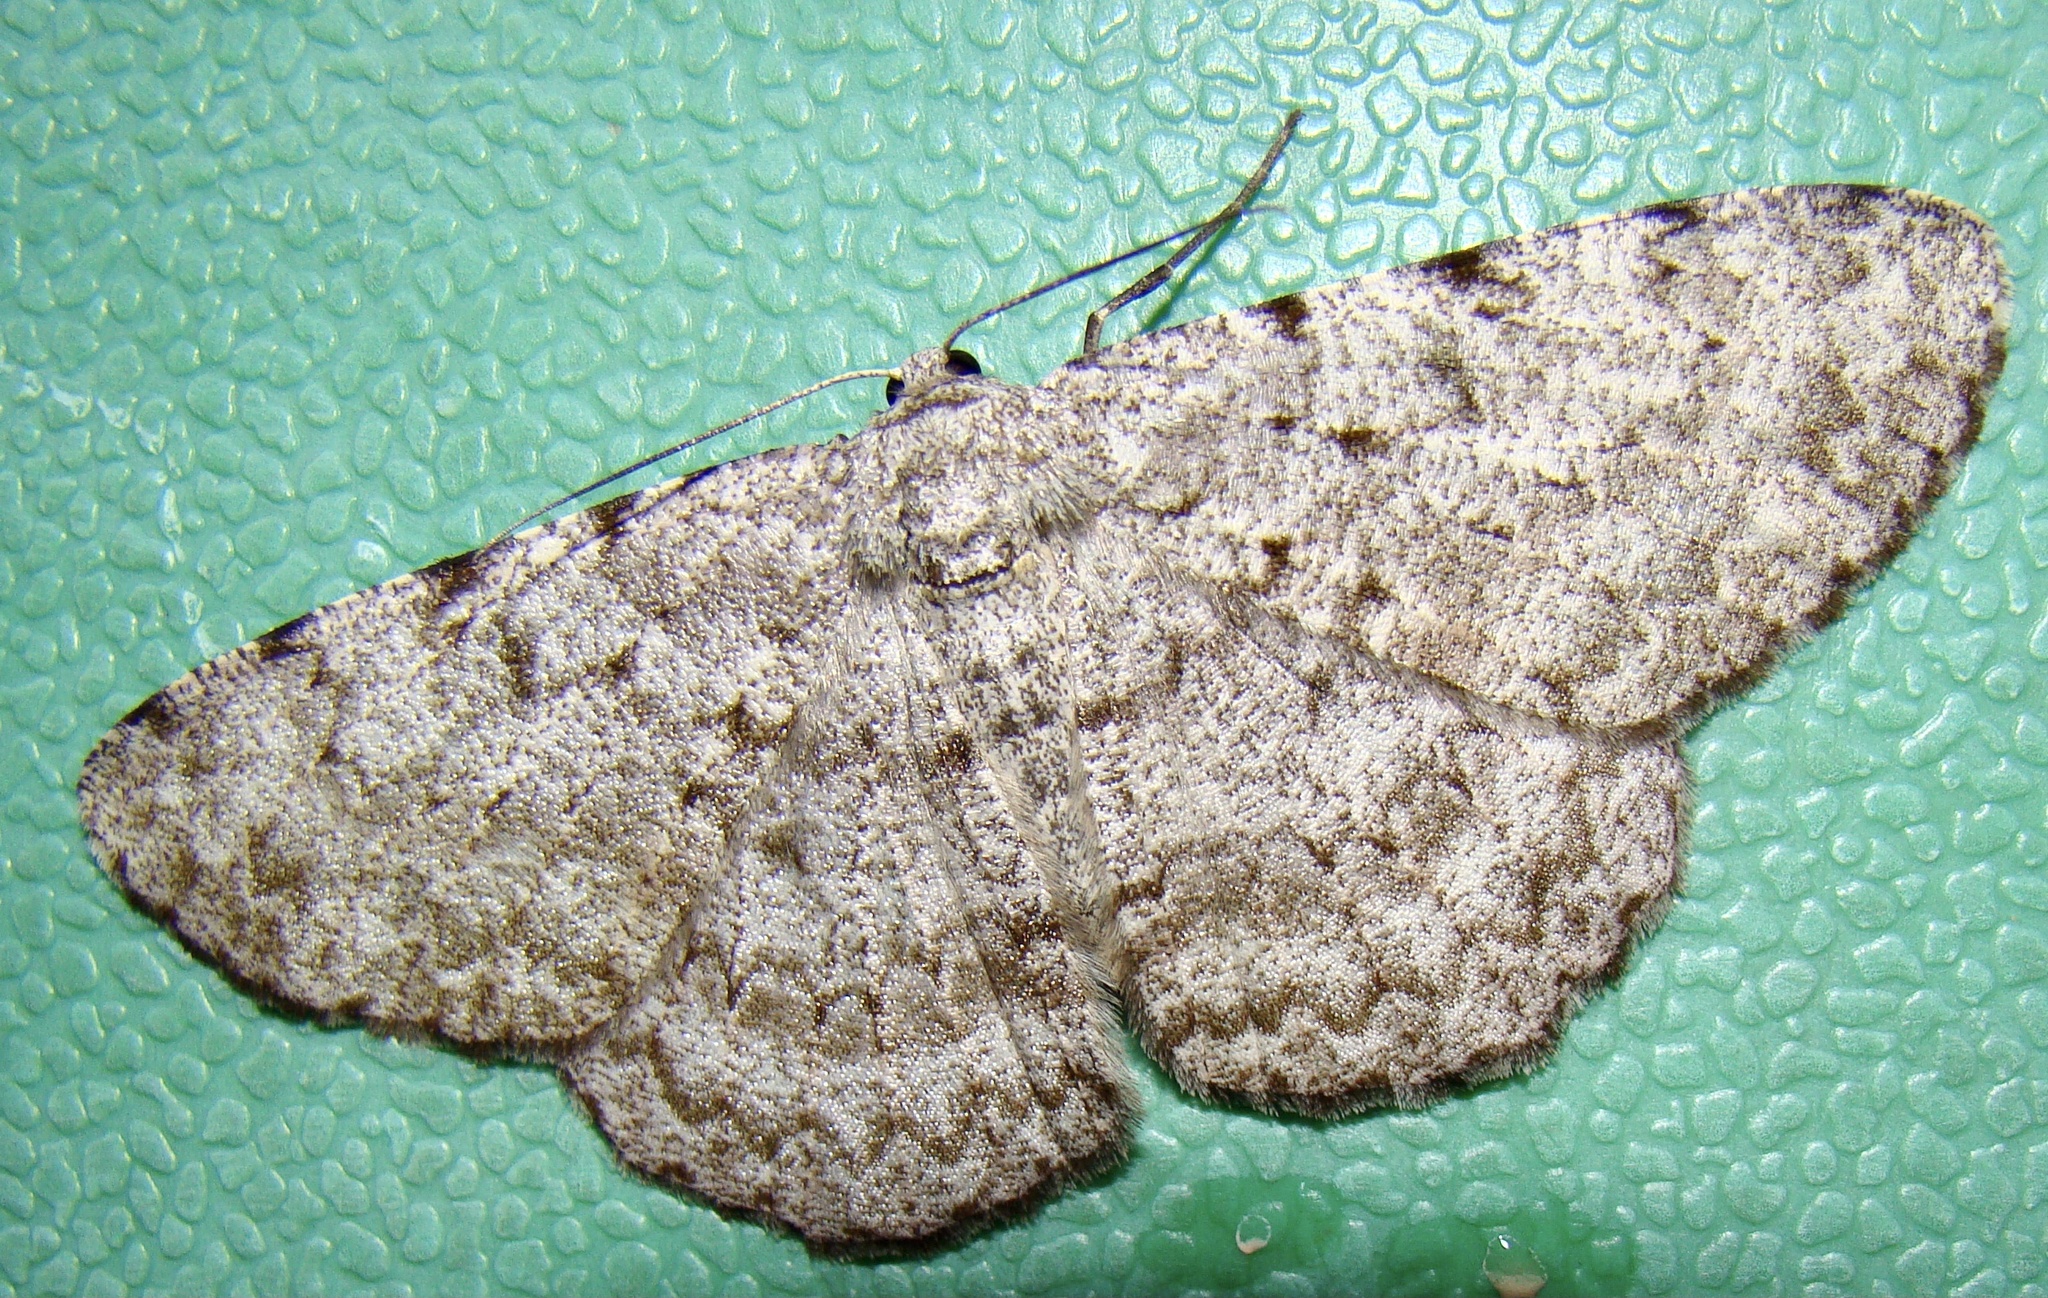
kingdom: Animalia
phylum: Arthropoda
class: Insecta
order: Lepidoptera
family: Geometridae
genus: Hypomecis
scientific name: Hypomecis cineracea
